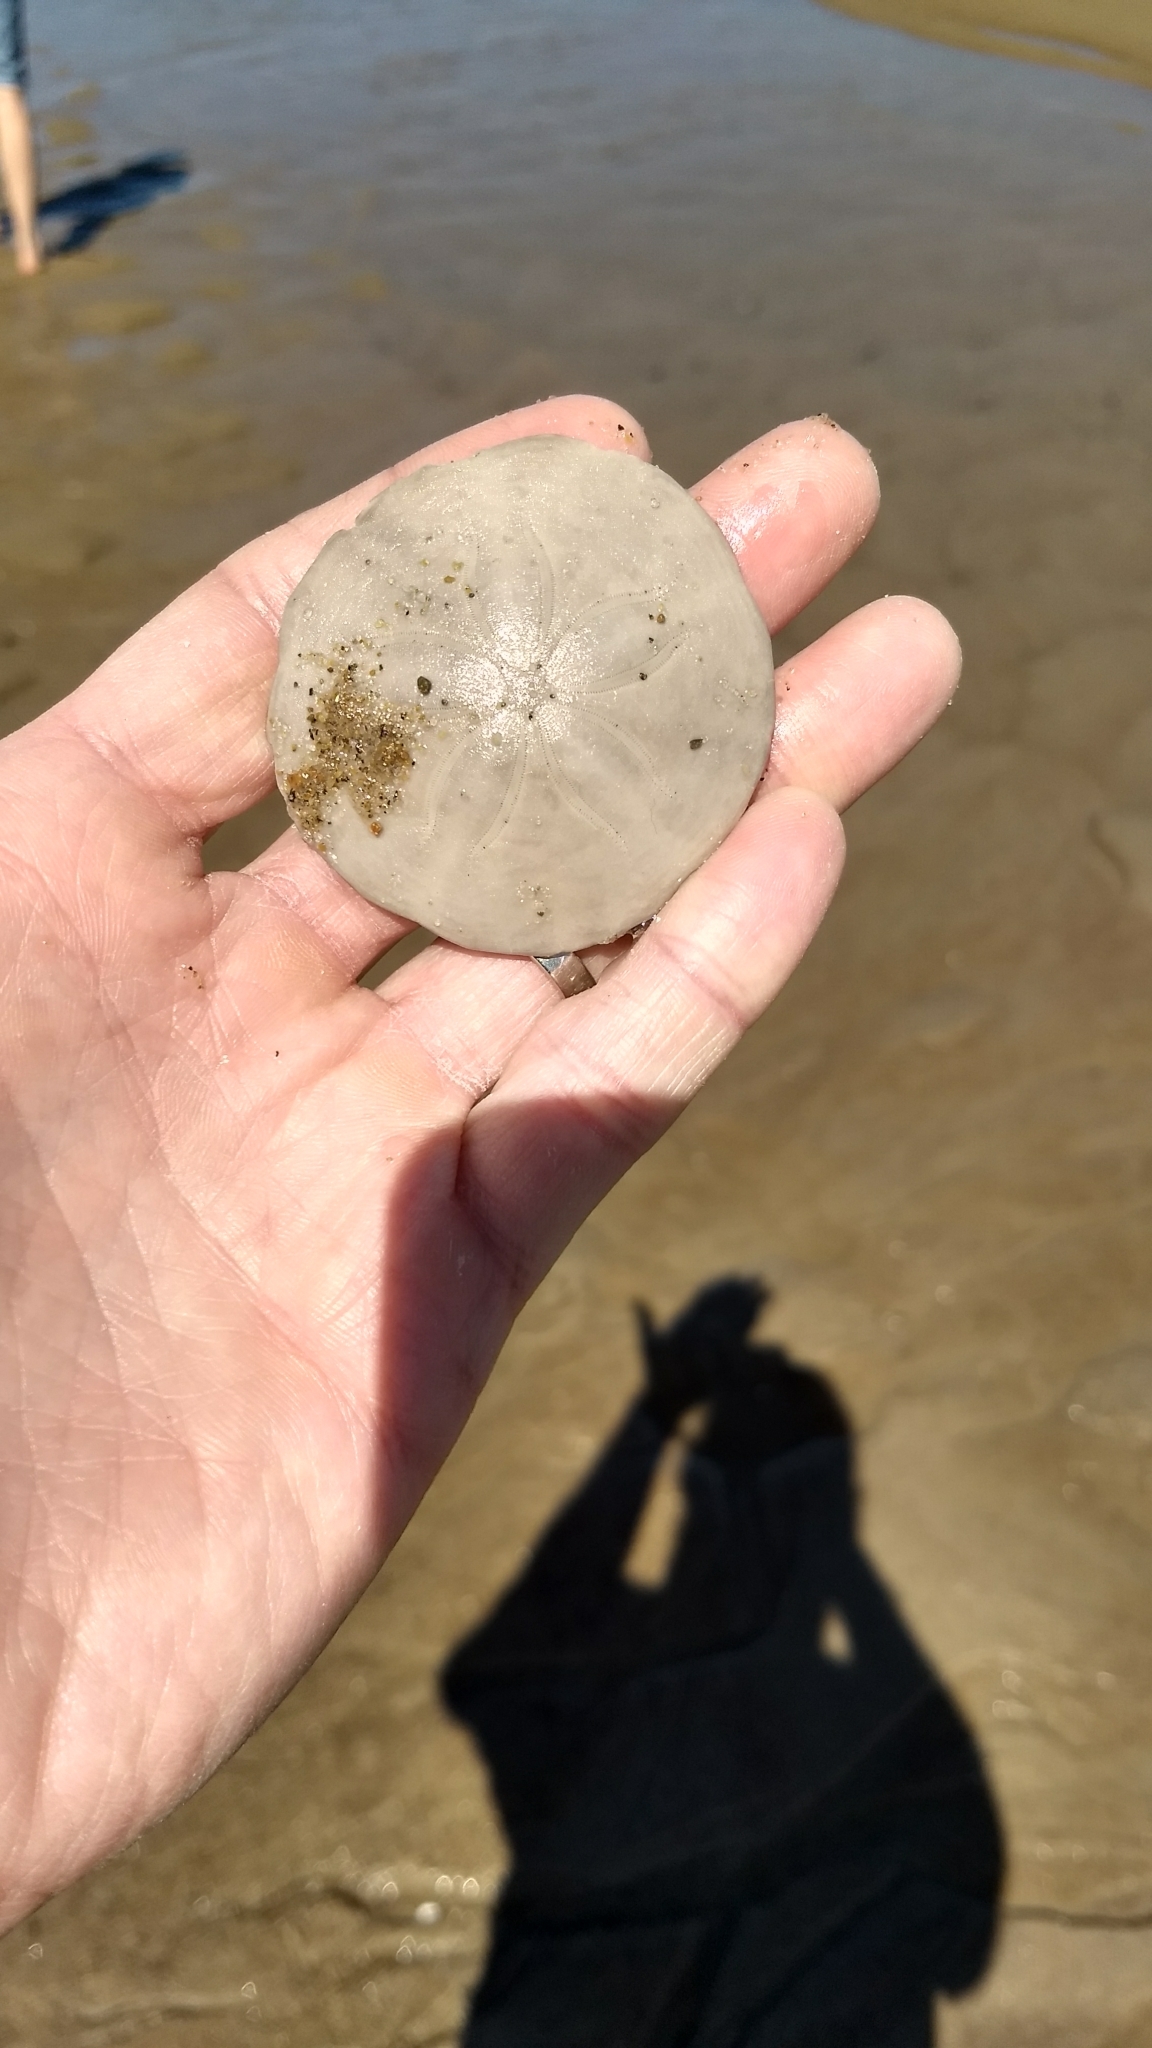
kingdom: Animalia
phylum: Echinodermata
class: Echinoidea
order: Echinolampadacea
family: Echinarachniidae
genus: Echinarachnius
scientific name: Echinarachnius parma
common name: Common sand dollar
